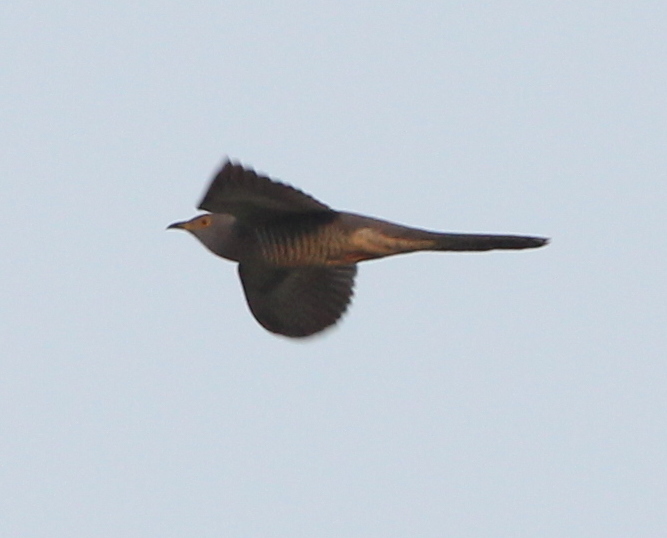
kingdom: Animalia
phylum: Chordata
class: Aves
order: Cuculiformes
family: Cuculidae
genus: Cuculus
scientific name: Cuculus canorus
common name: Common cuckoo
